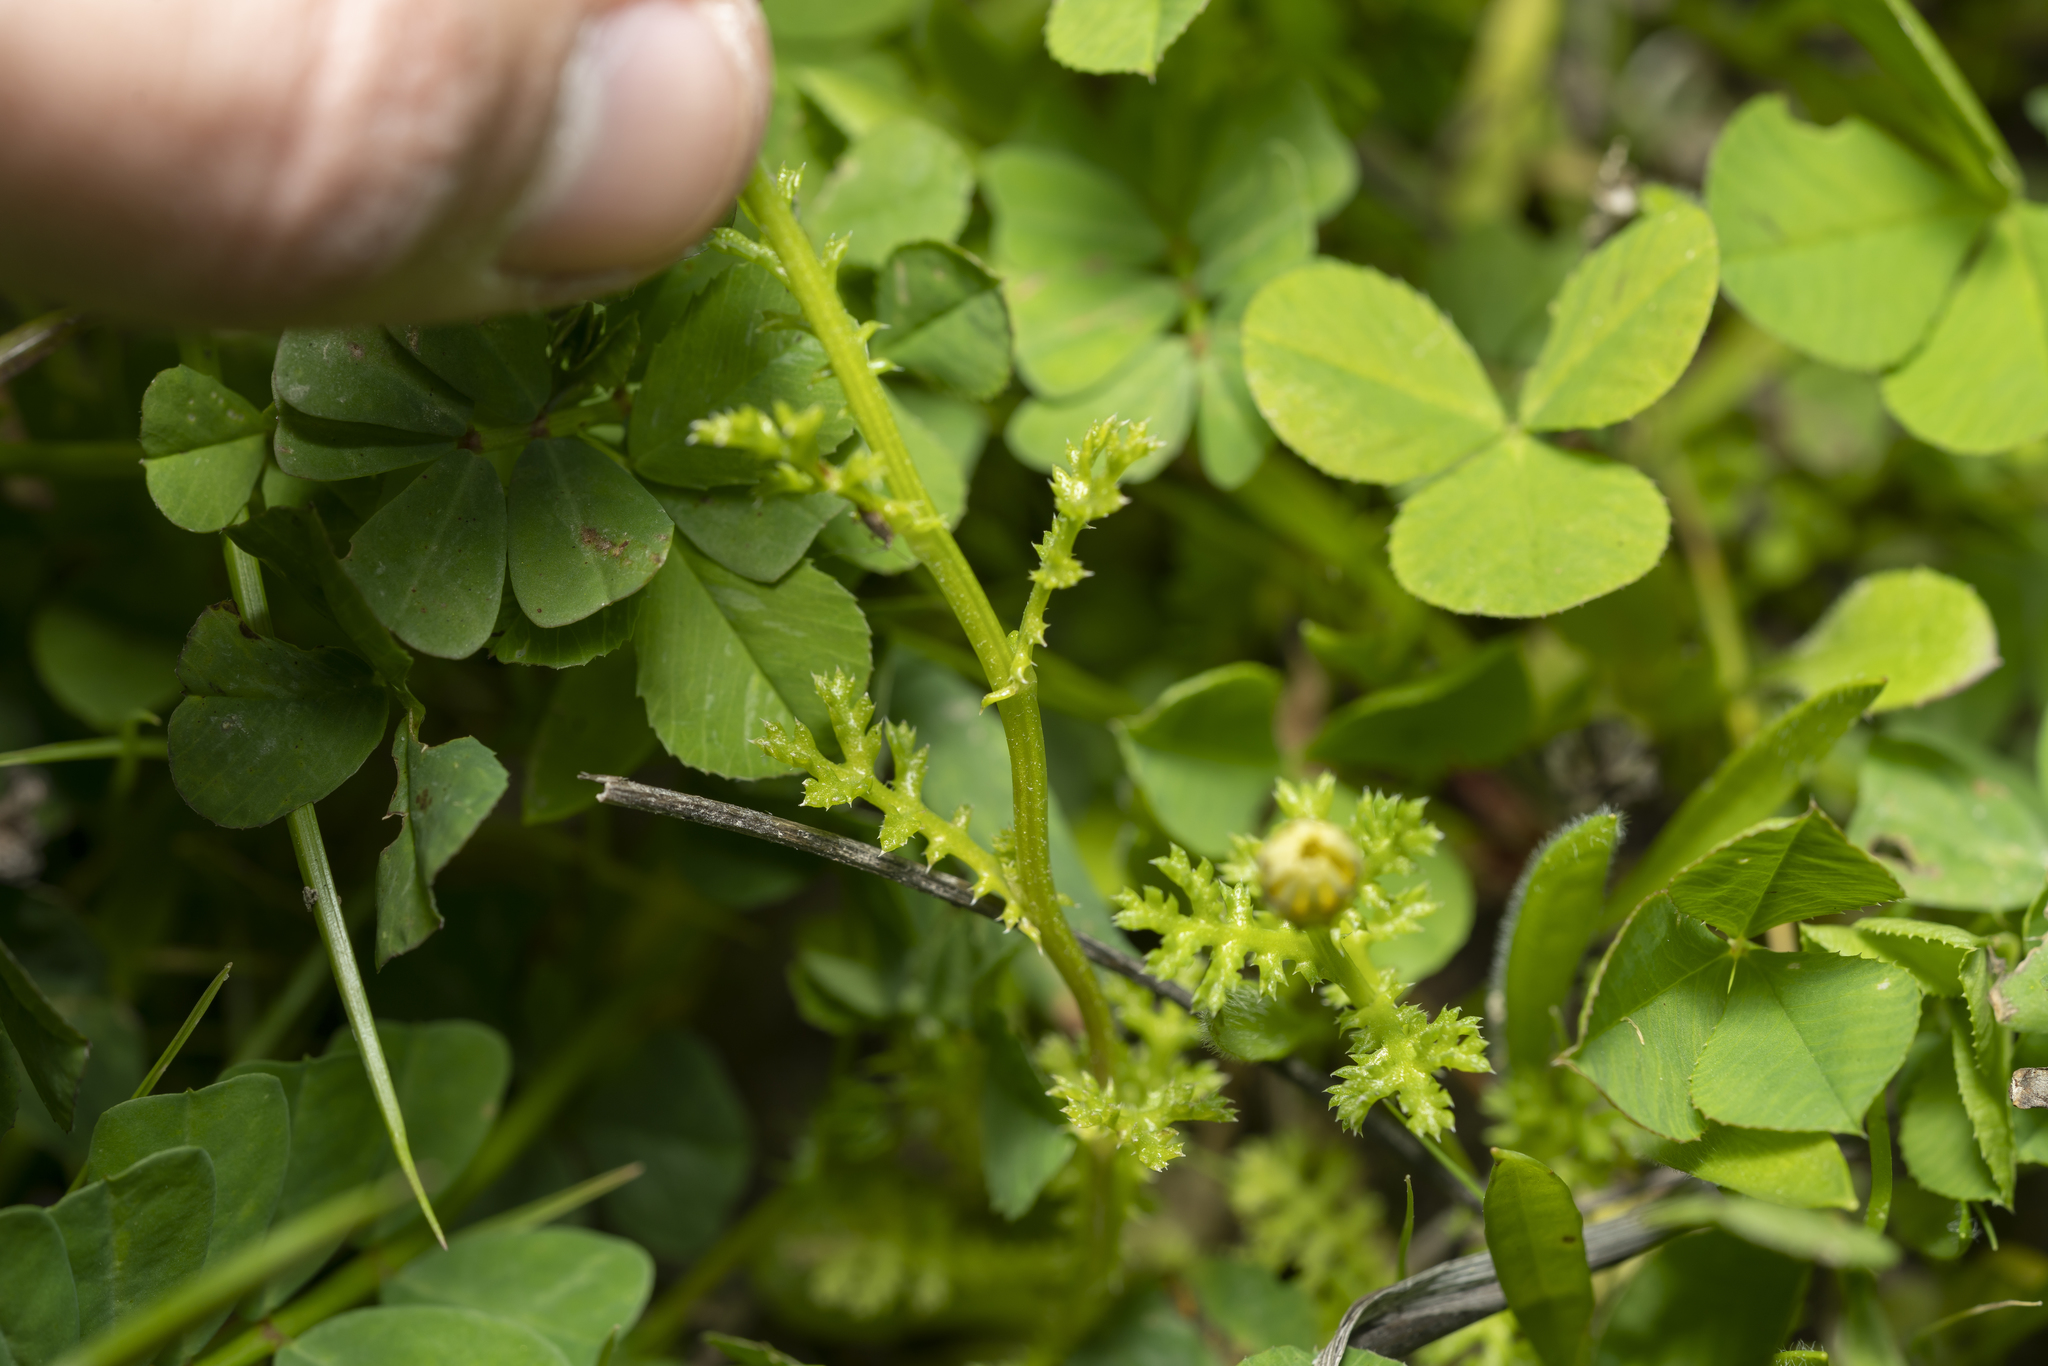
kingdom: Plantae
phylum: Tracheophyta
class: Magnoliopsida
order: Asterales
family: Asteraceae
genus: Anthemis
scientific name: Anthemis chia
